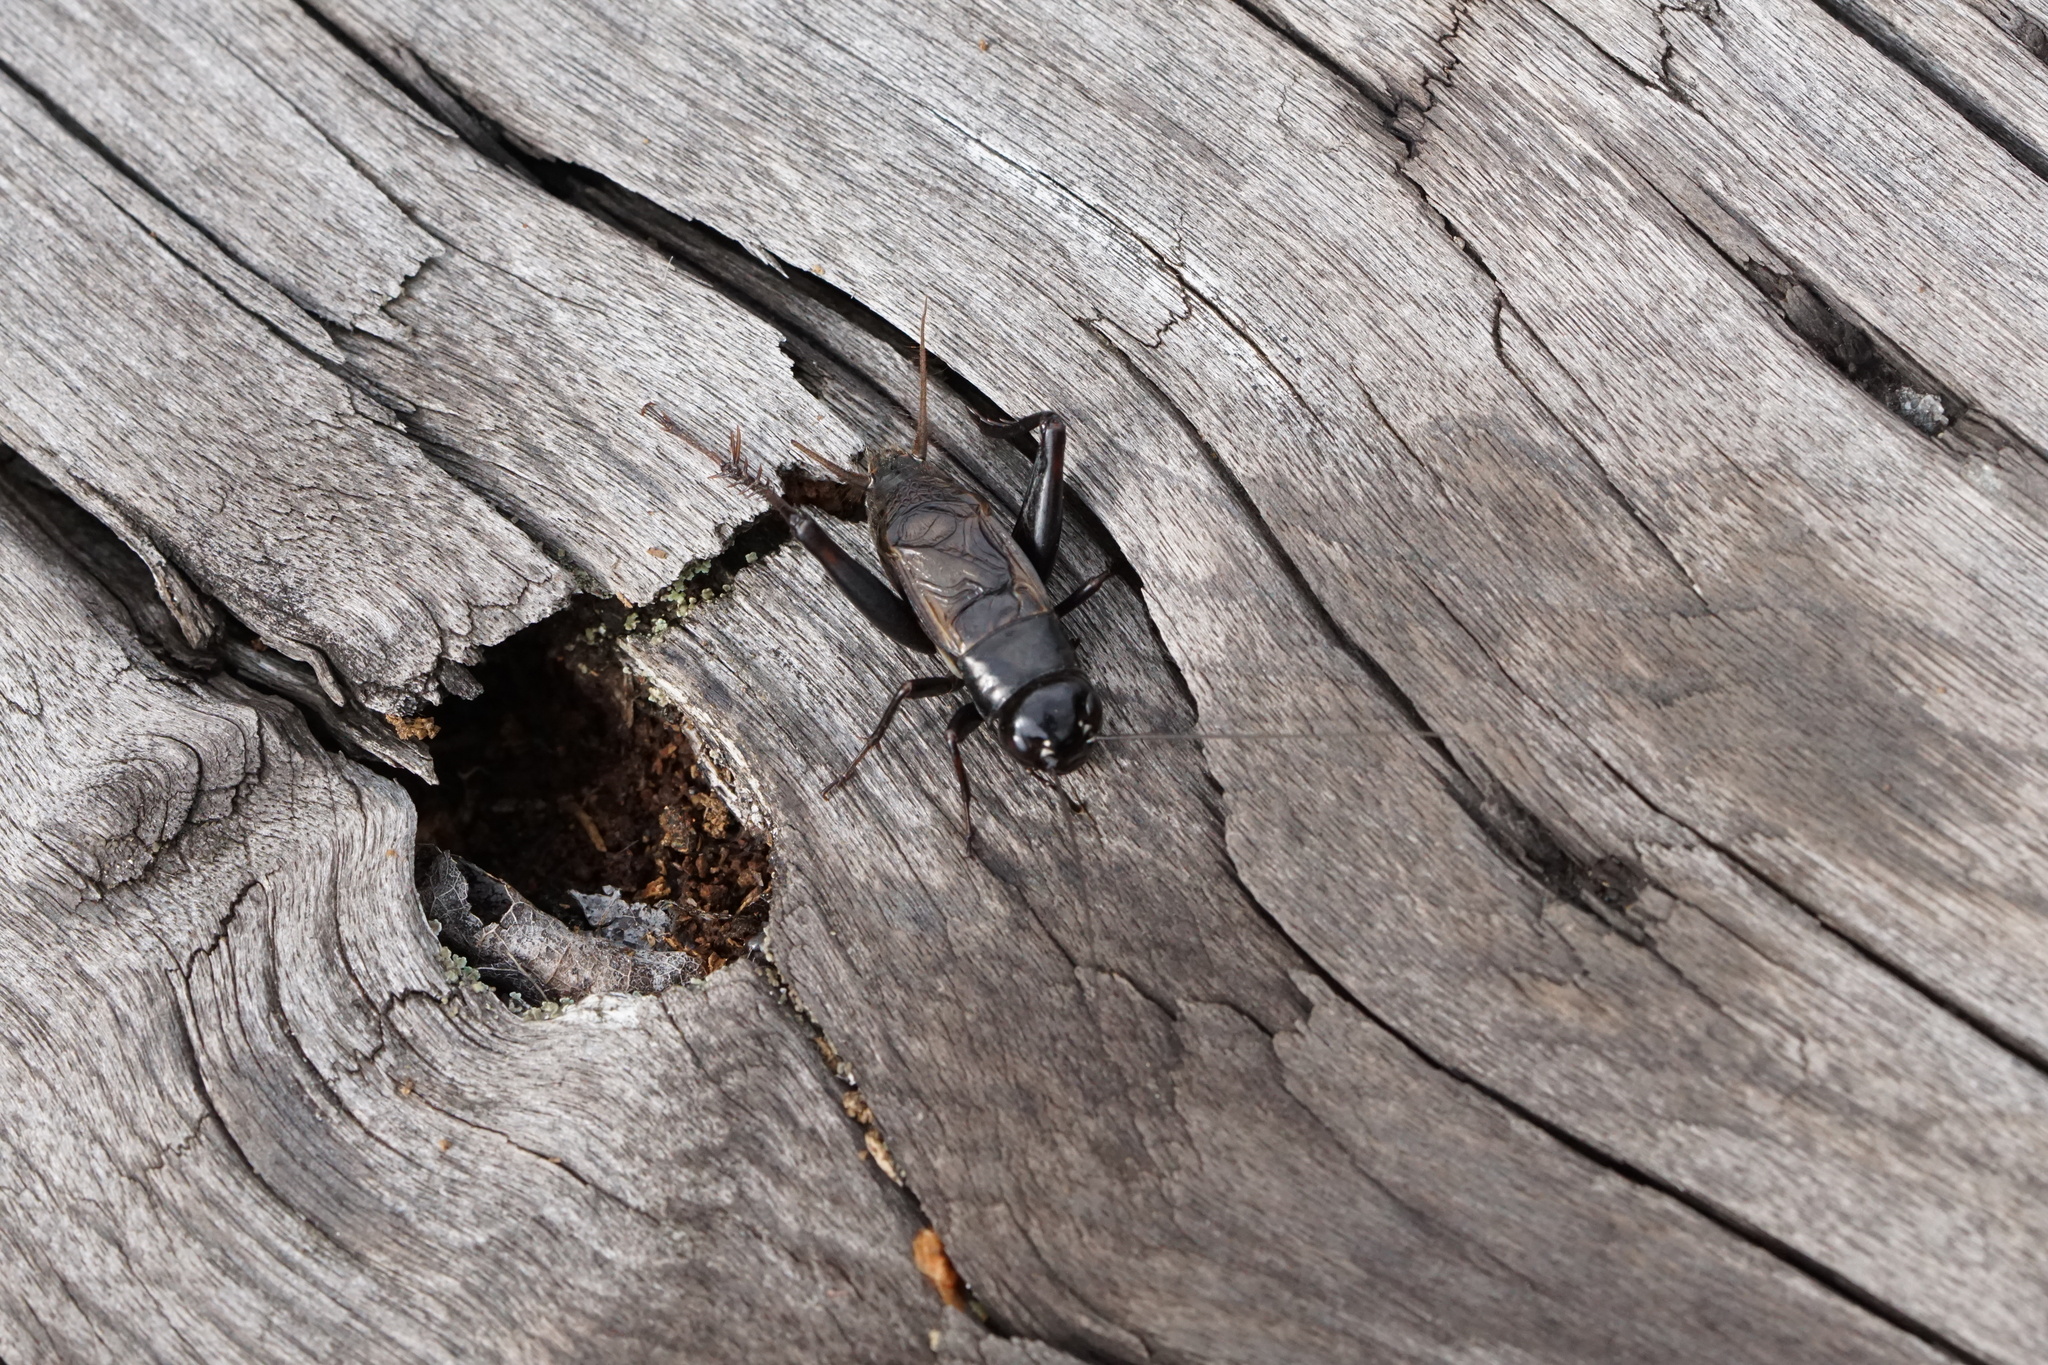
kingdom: Animalia
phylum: Arthropoda
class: Insecta
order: Orthoptera
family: Gryllidae
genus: Gryllus
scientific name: Gryllus pennsylvanicus
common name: Fall field cricket
